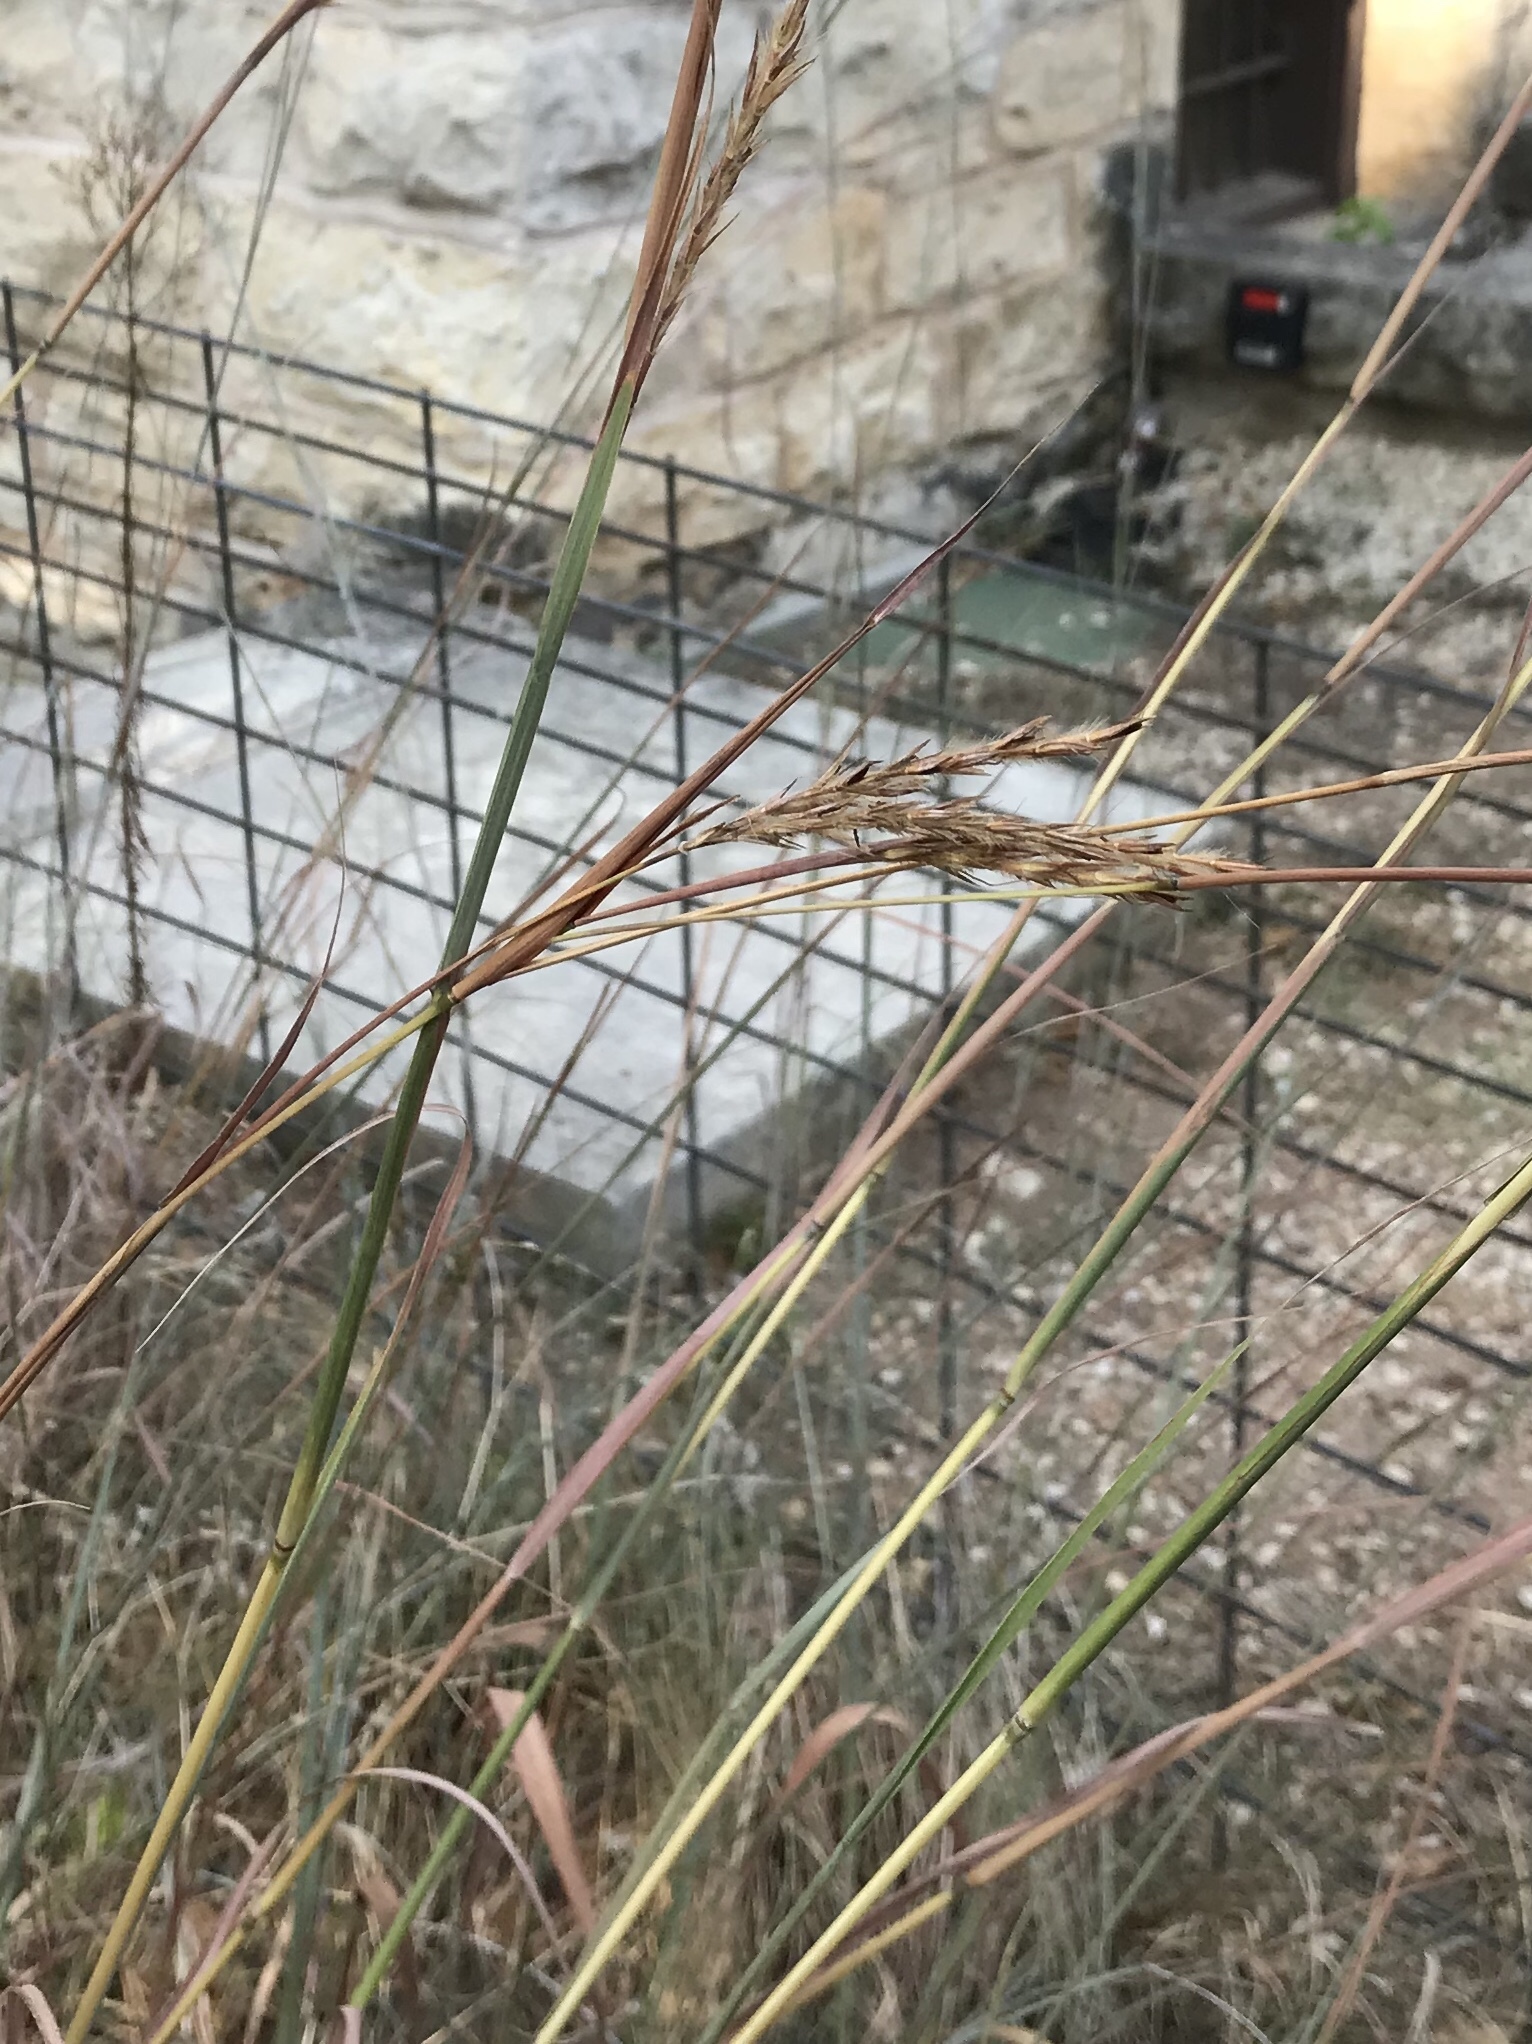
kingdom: Plantae
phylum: Tracheophyta
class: Liliopsida
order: Poales
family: Poaceae
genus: Andropogon
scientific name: Andropogon gerardi
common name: Big bluestem
